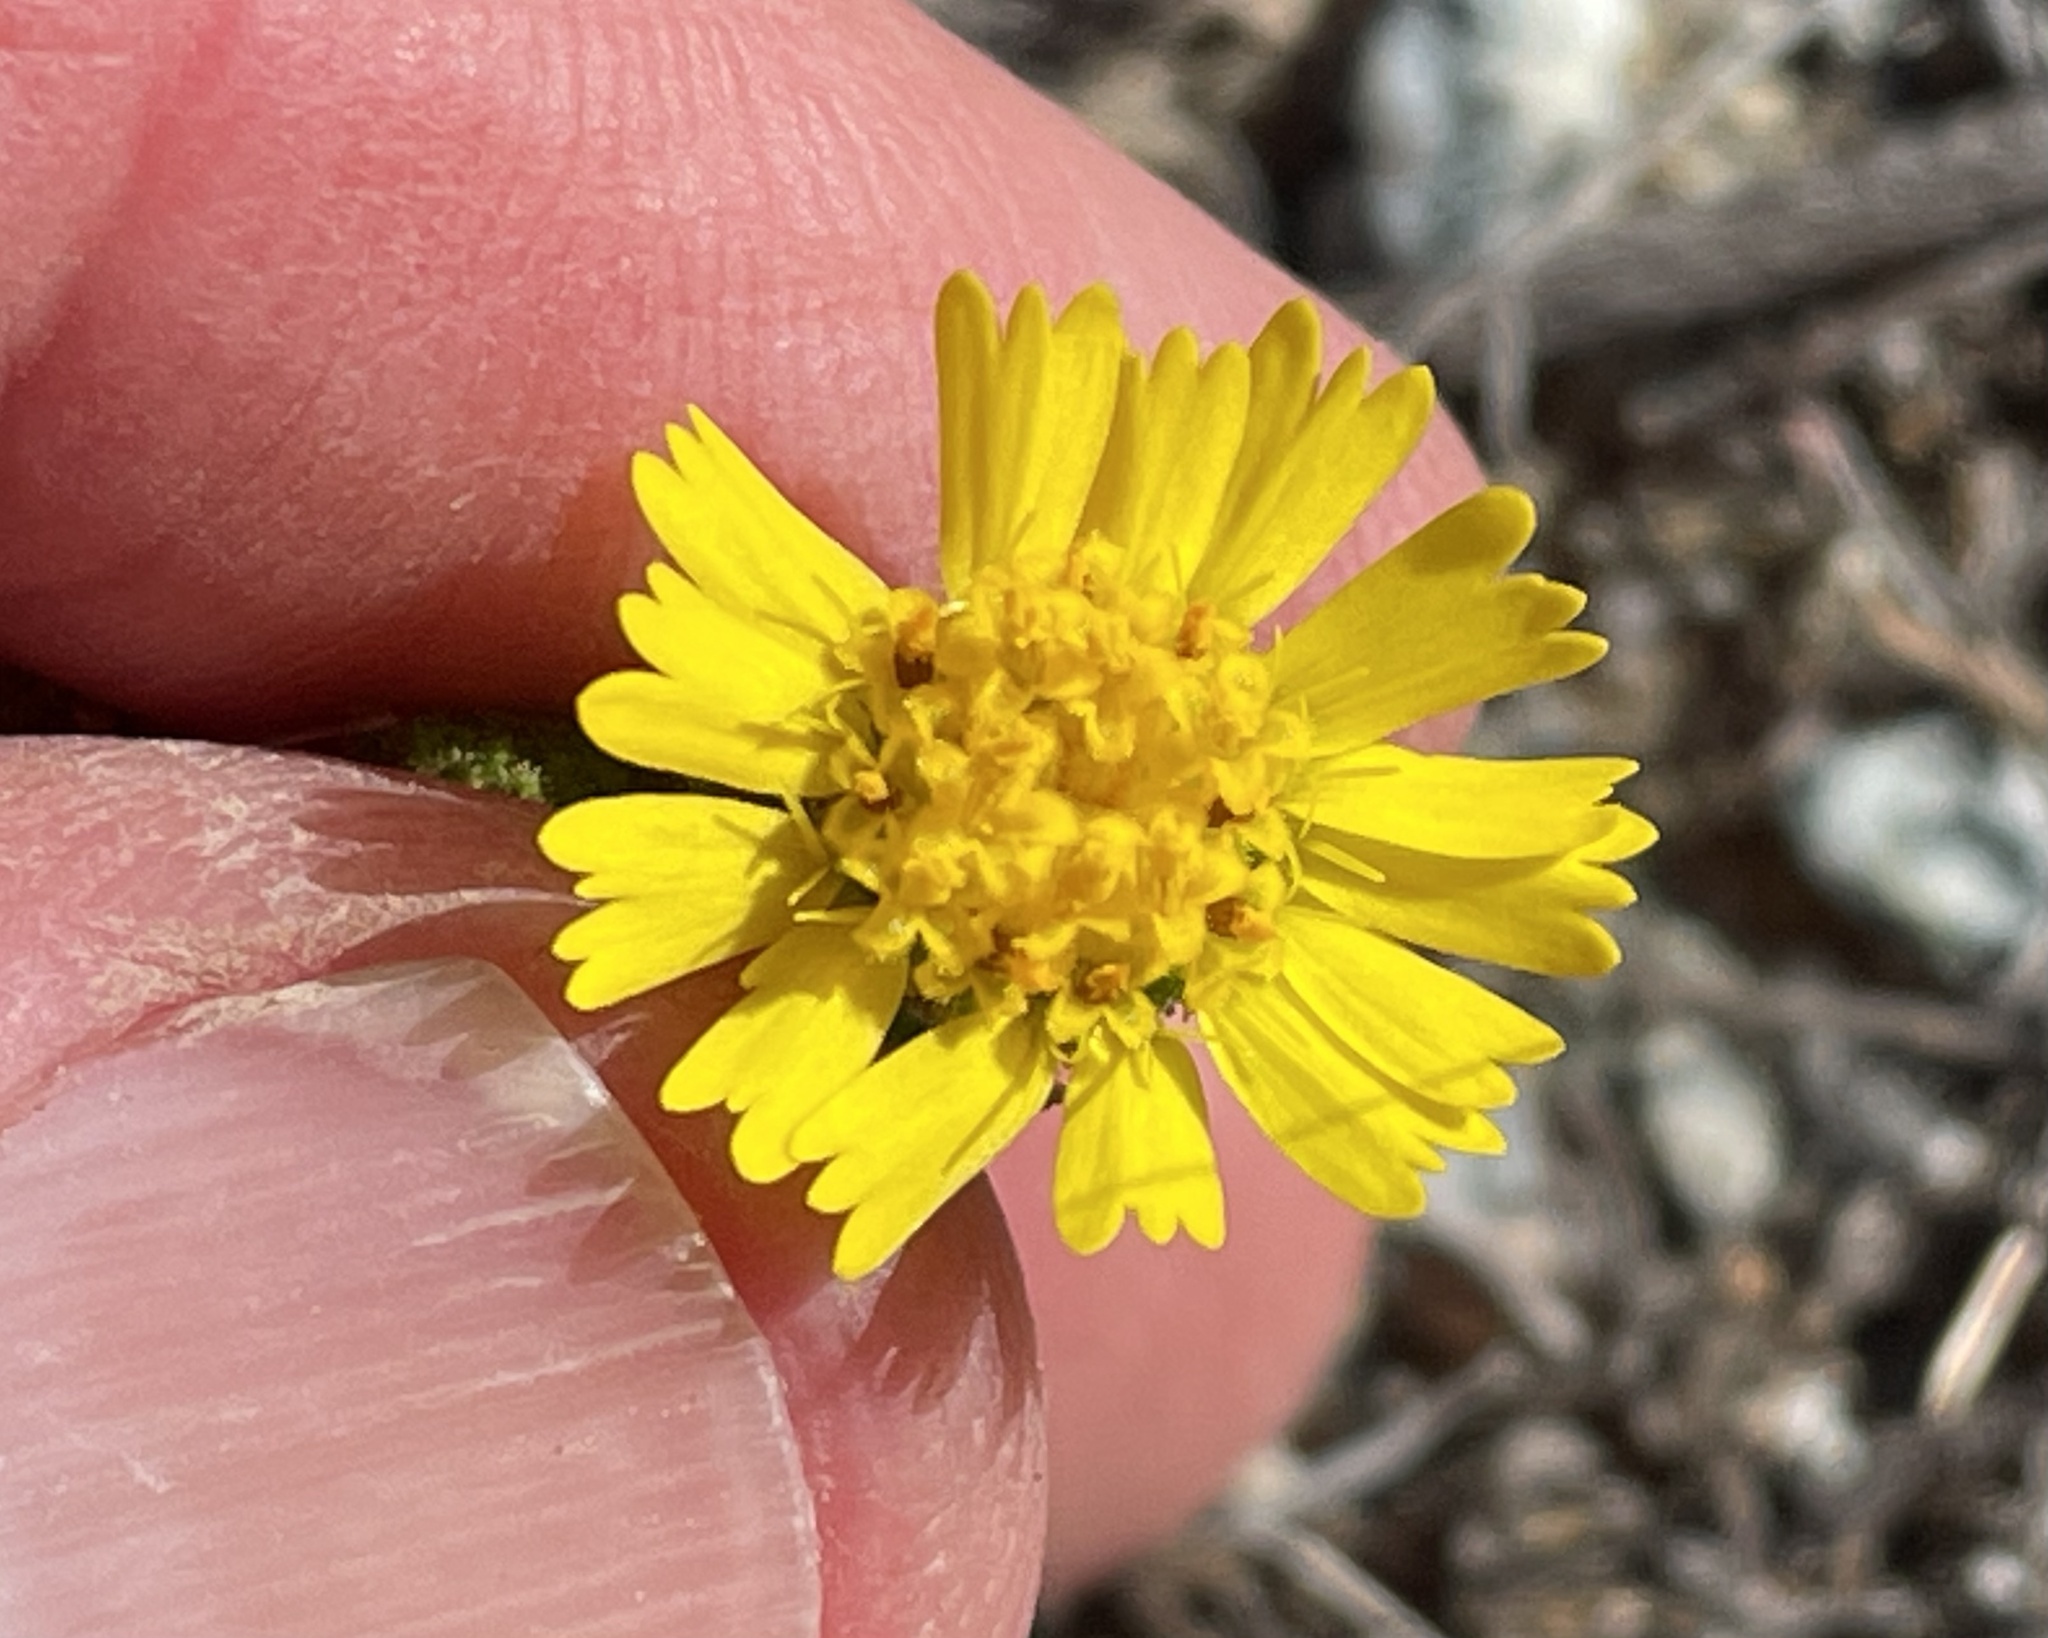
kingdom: Plantae
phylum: Tracheophyta
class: Magnoliopsida
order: Asterales
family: Asteraceae
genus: Deinandra
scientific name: Deinandra corymbosa
